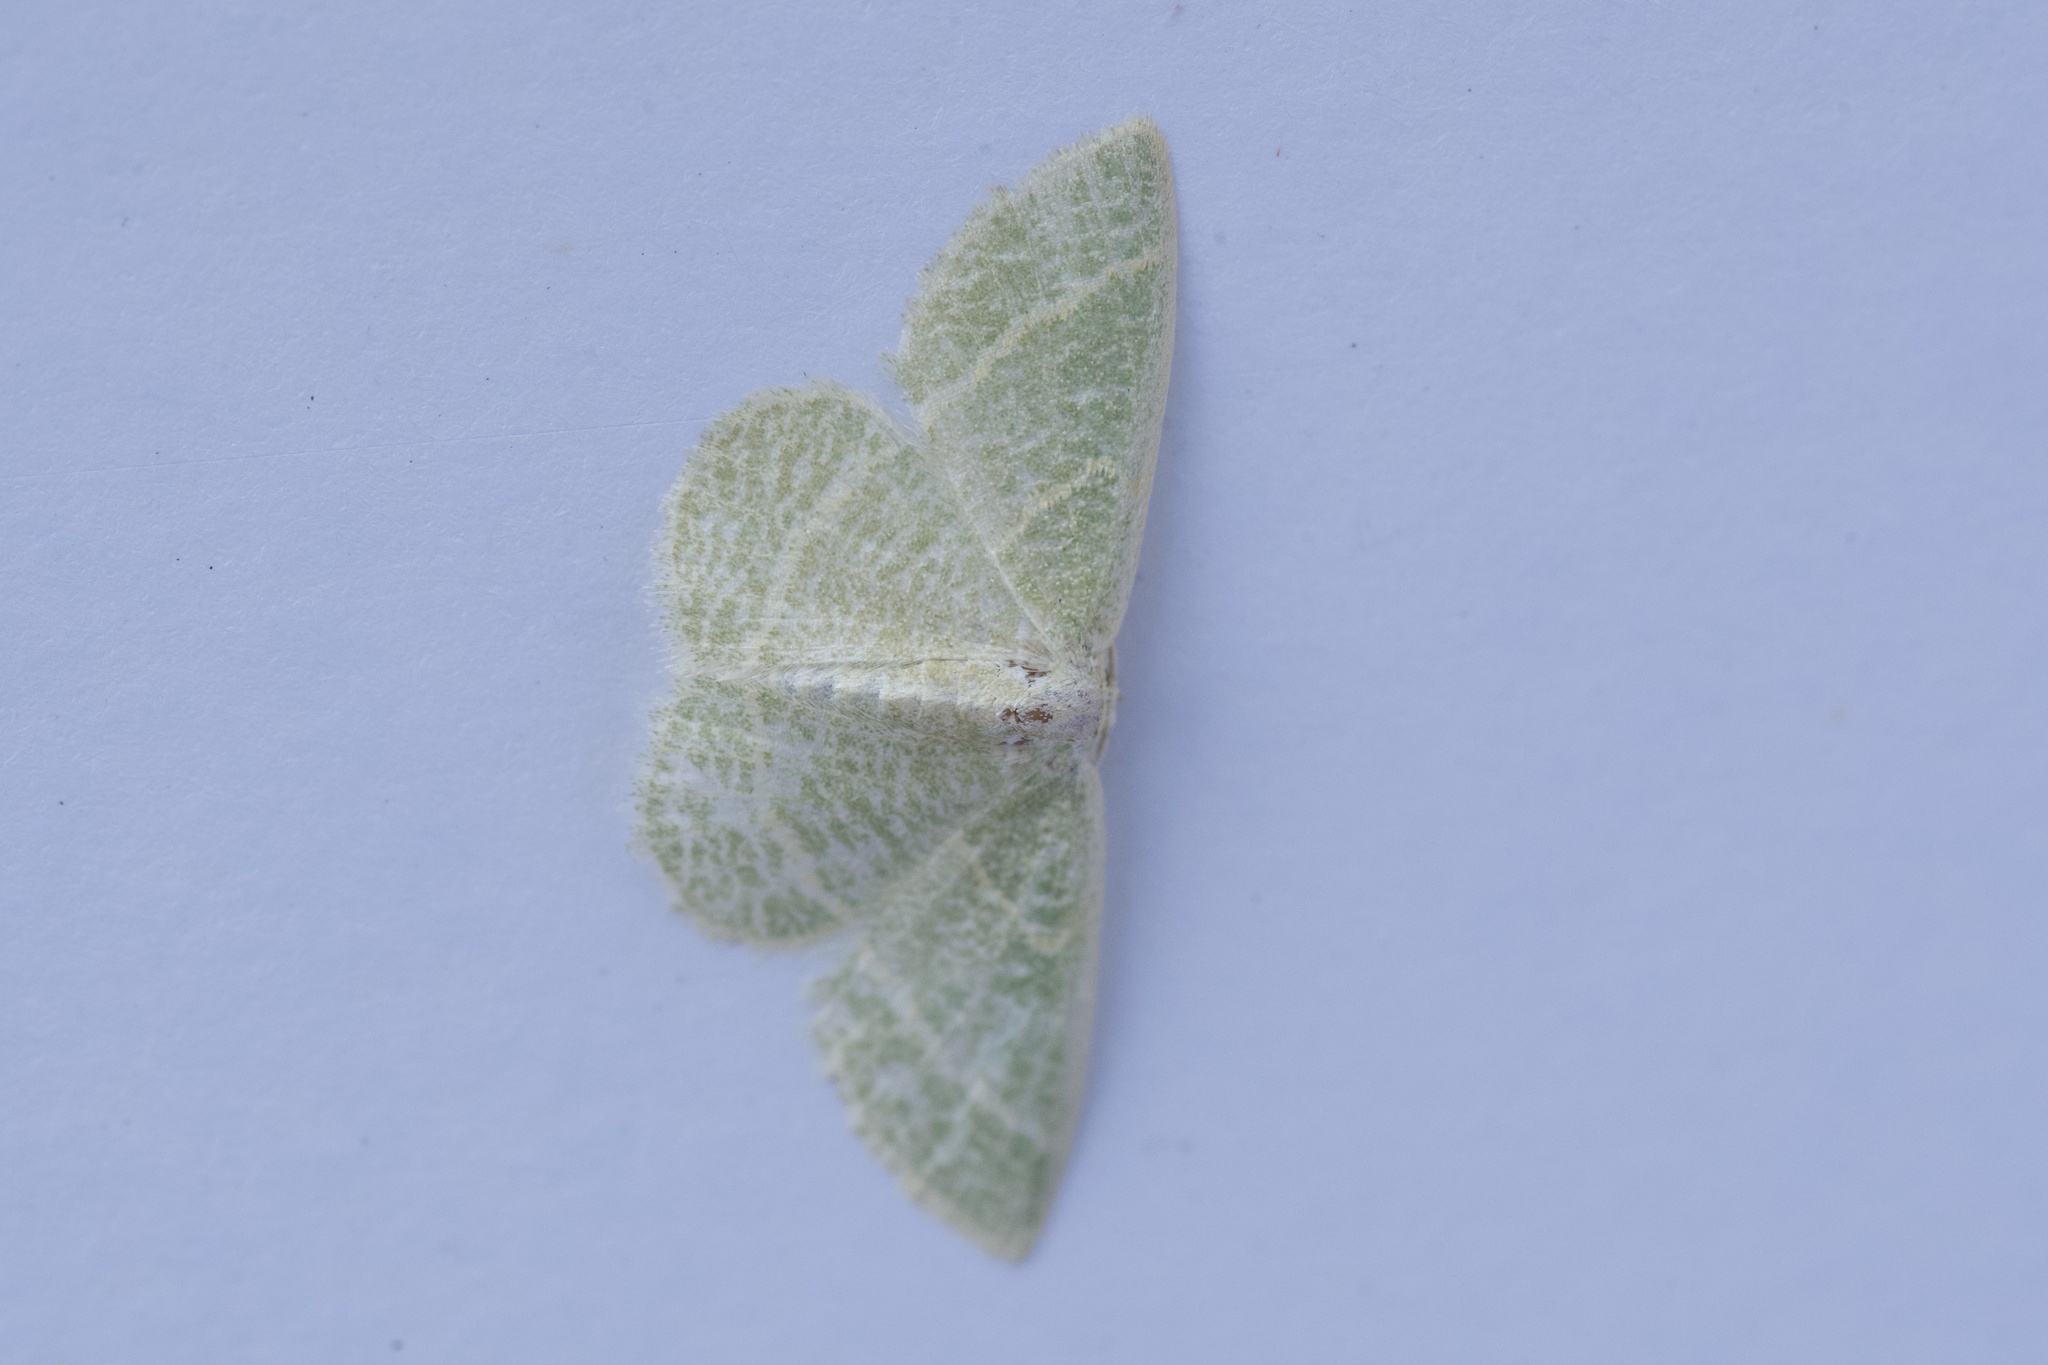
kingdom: Animalia
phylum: Arthropoda
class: Insecta
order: Lepidoptera
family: Geometridae
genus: Chlorochlamys
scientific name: Chlorochlamys chloroleucaria
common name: Blackberry looper
